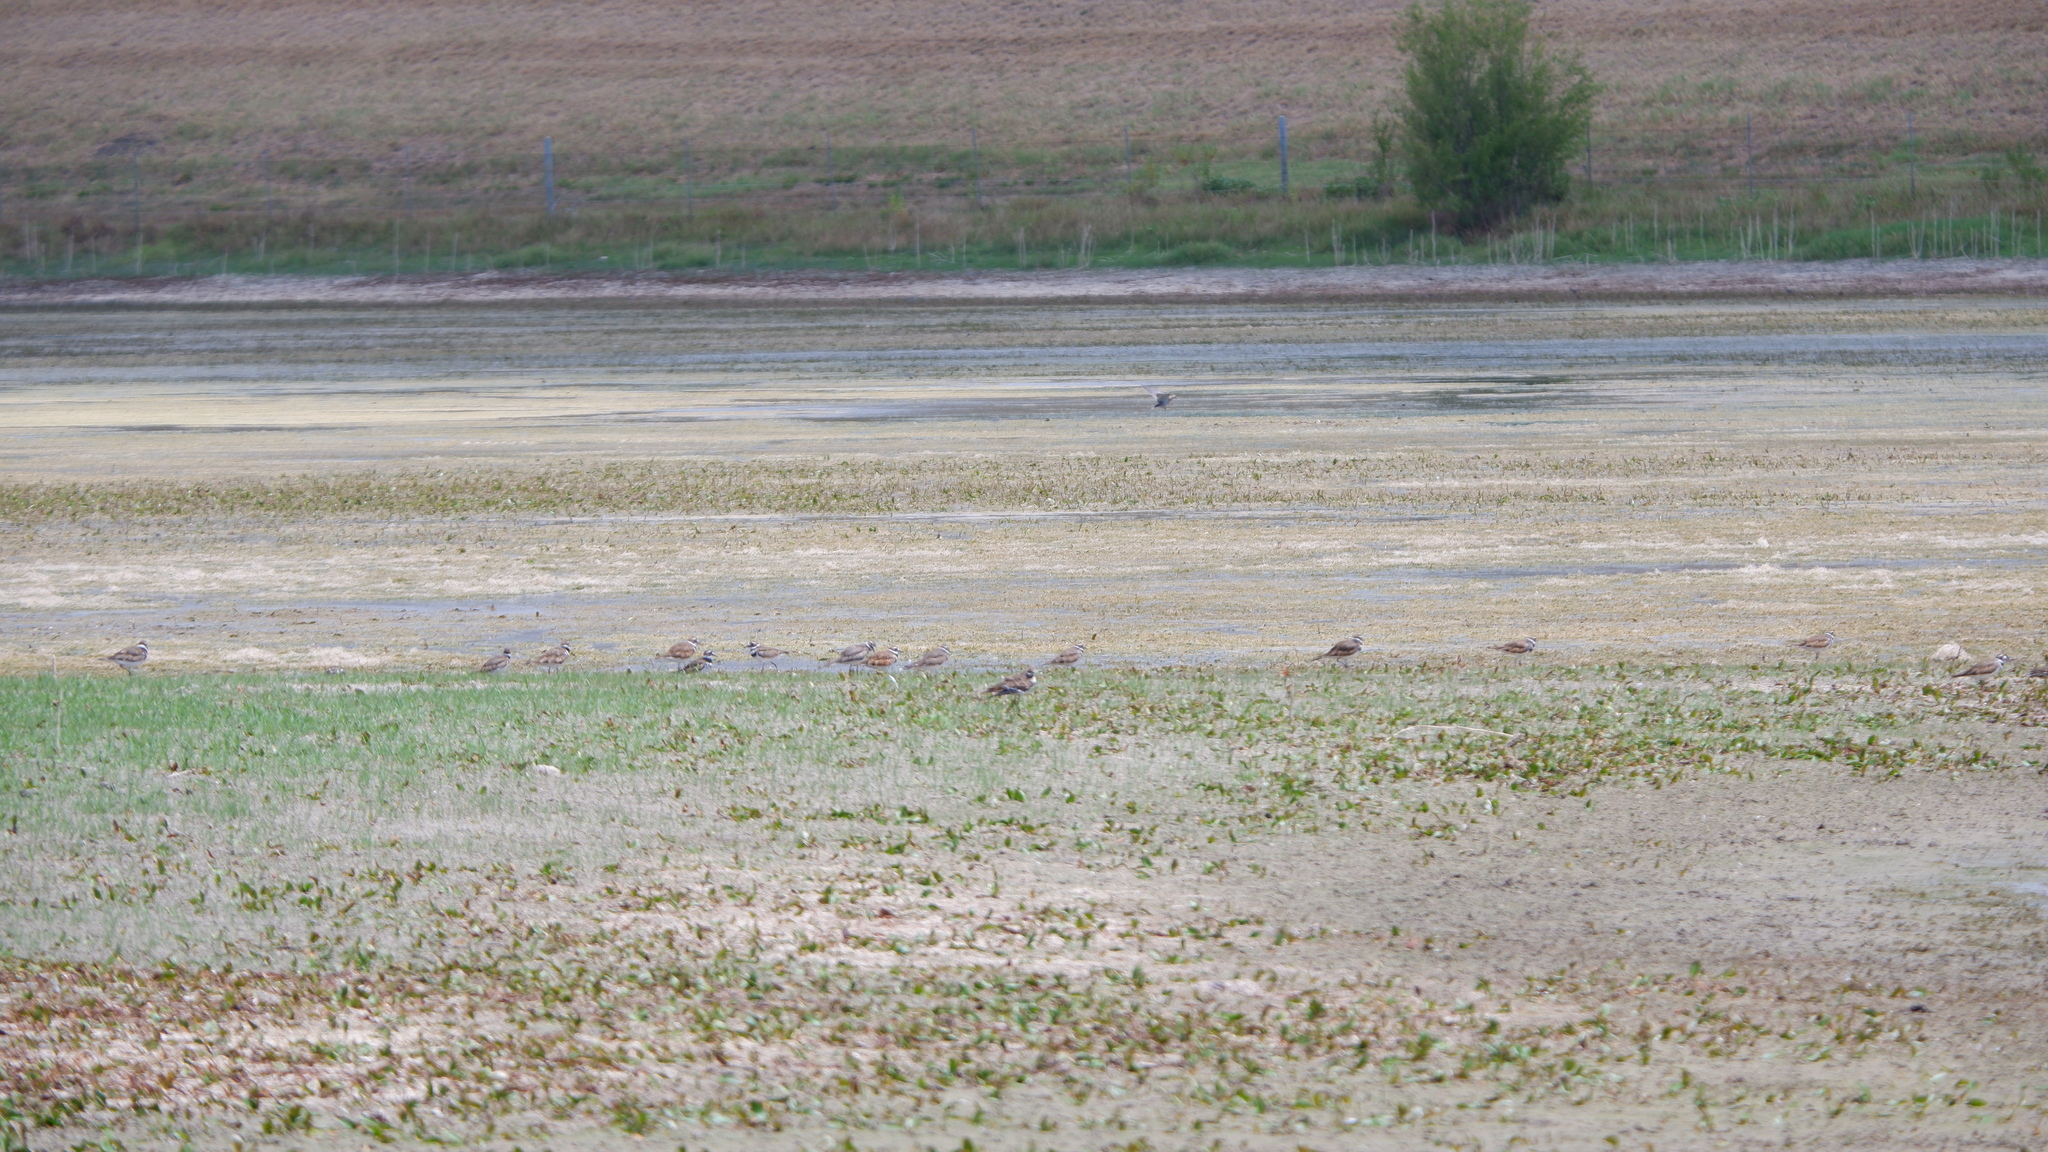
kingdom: Animalia
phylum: Chordata
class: Aves
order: Columbiformes
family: Columbidae
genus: Zenaida
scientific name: Zenaida macroura
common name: Mourning dove
